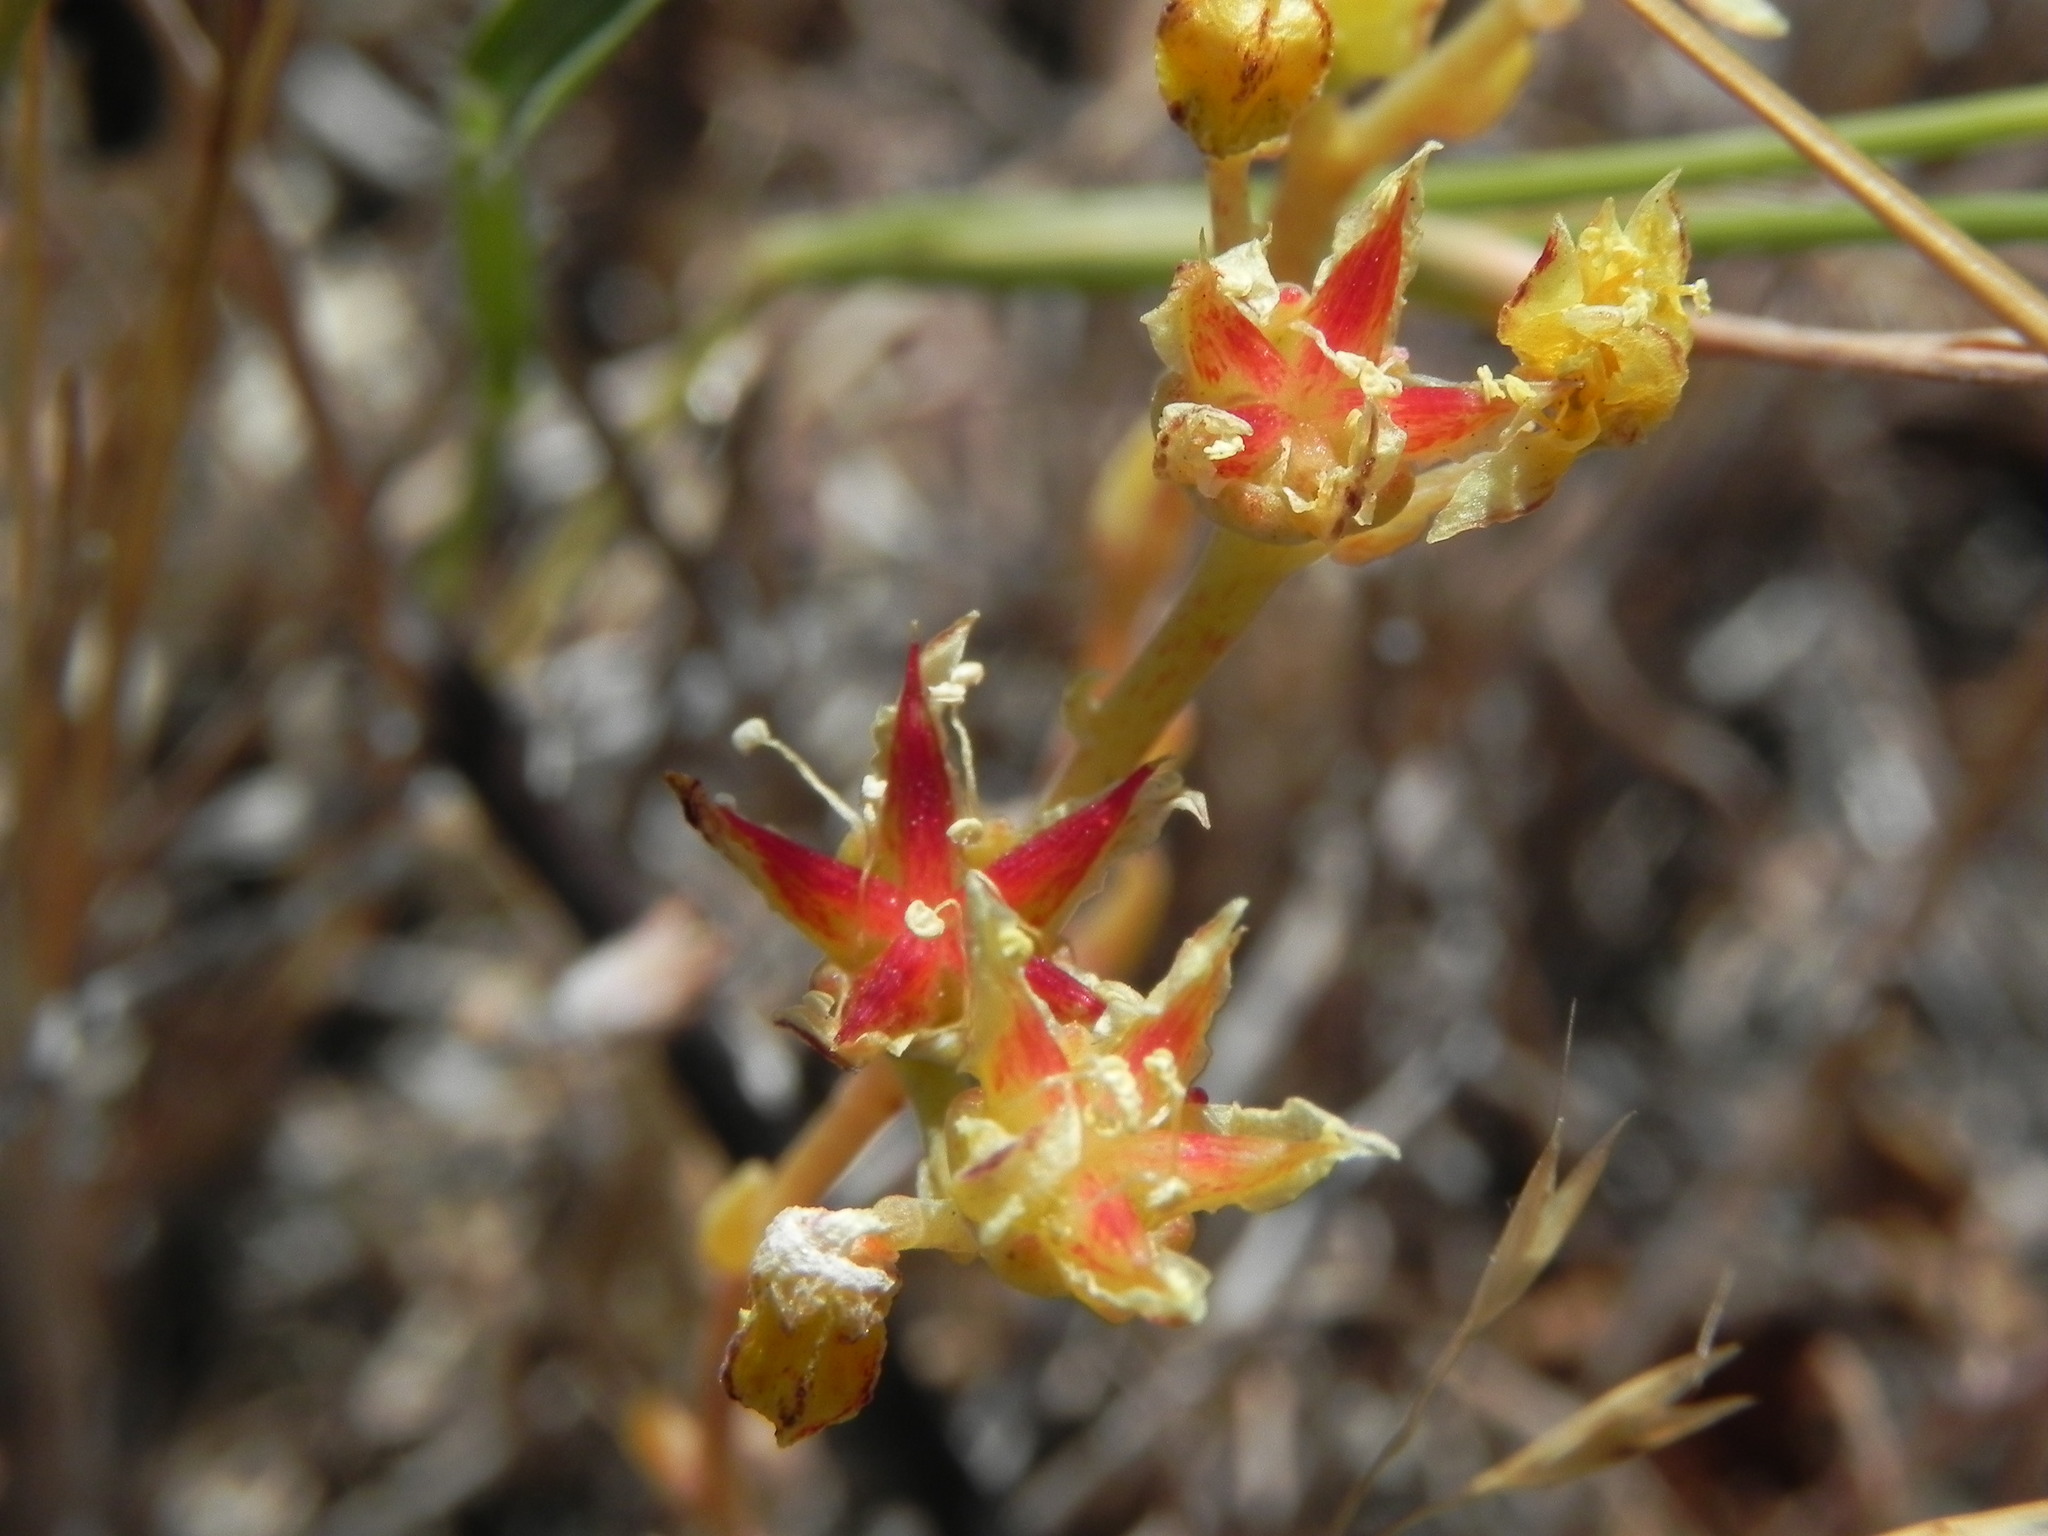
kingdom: Plantae
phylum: Tracheophyta
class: Magnoliopsida
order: Saxifragales
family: Crassulaceae
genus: Dudleya
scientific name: Dudleya variegata
